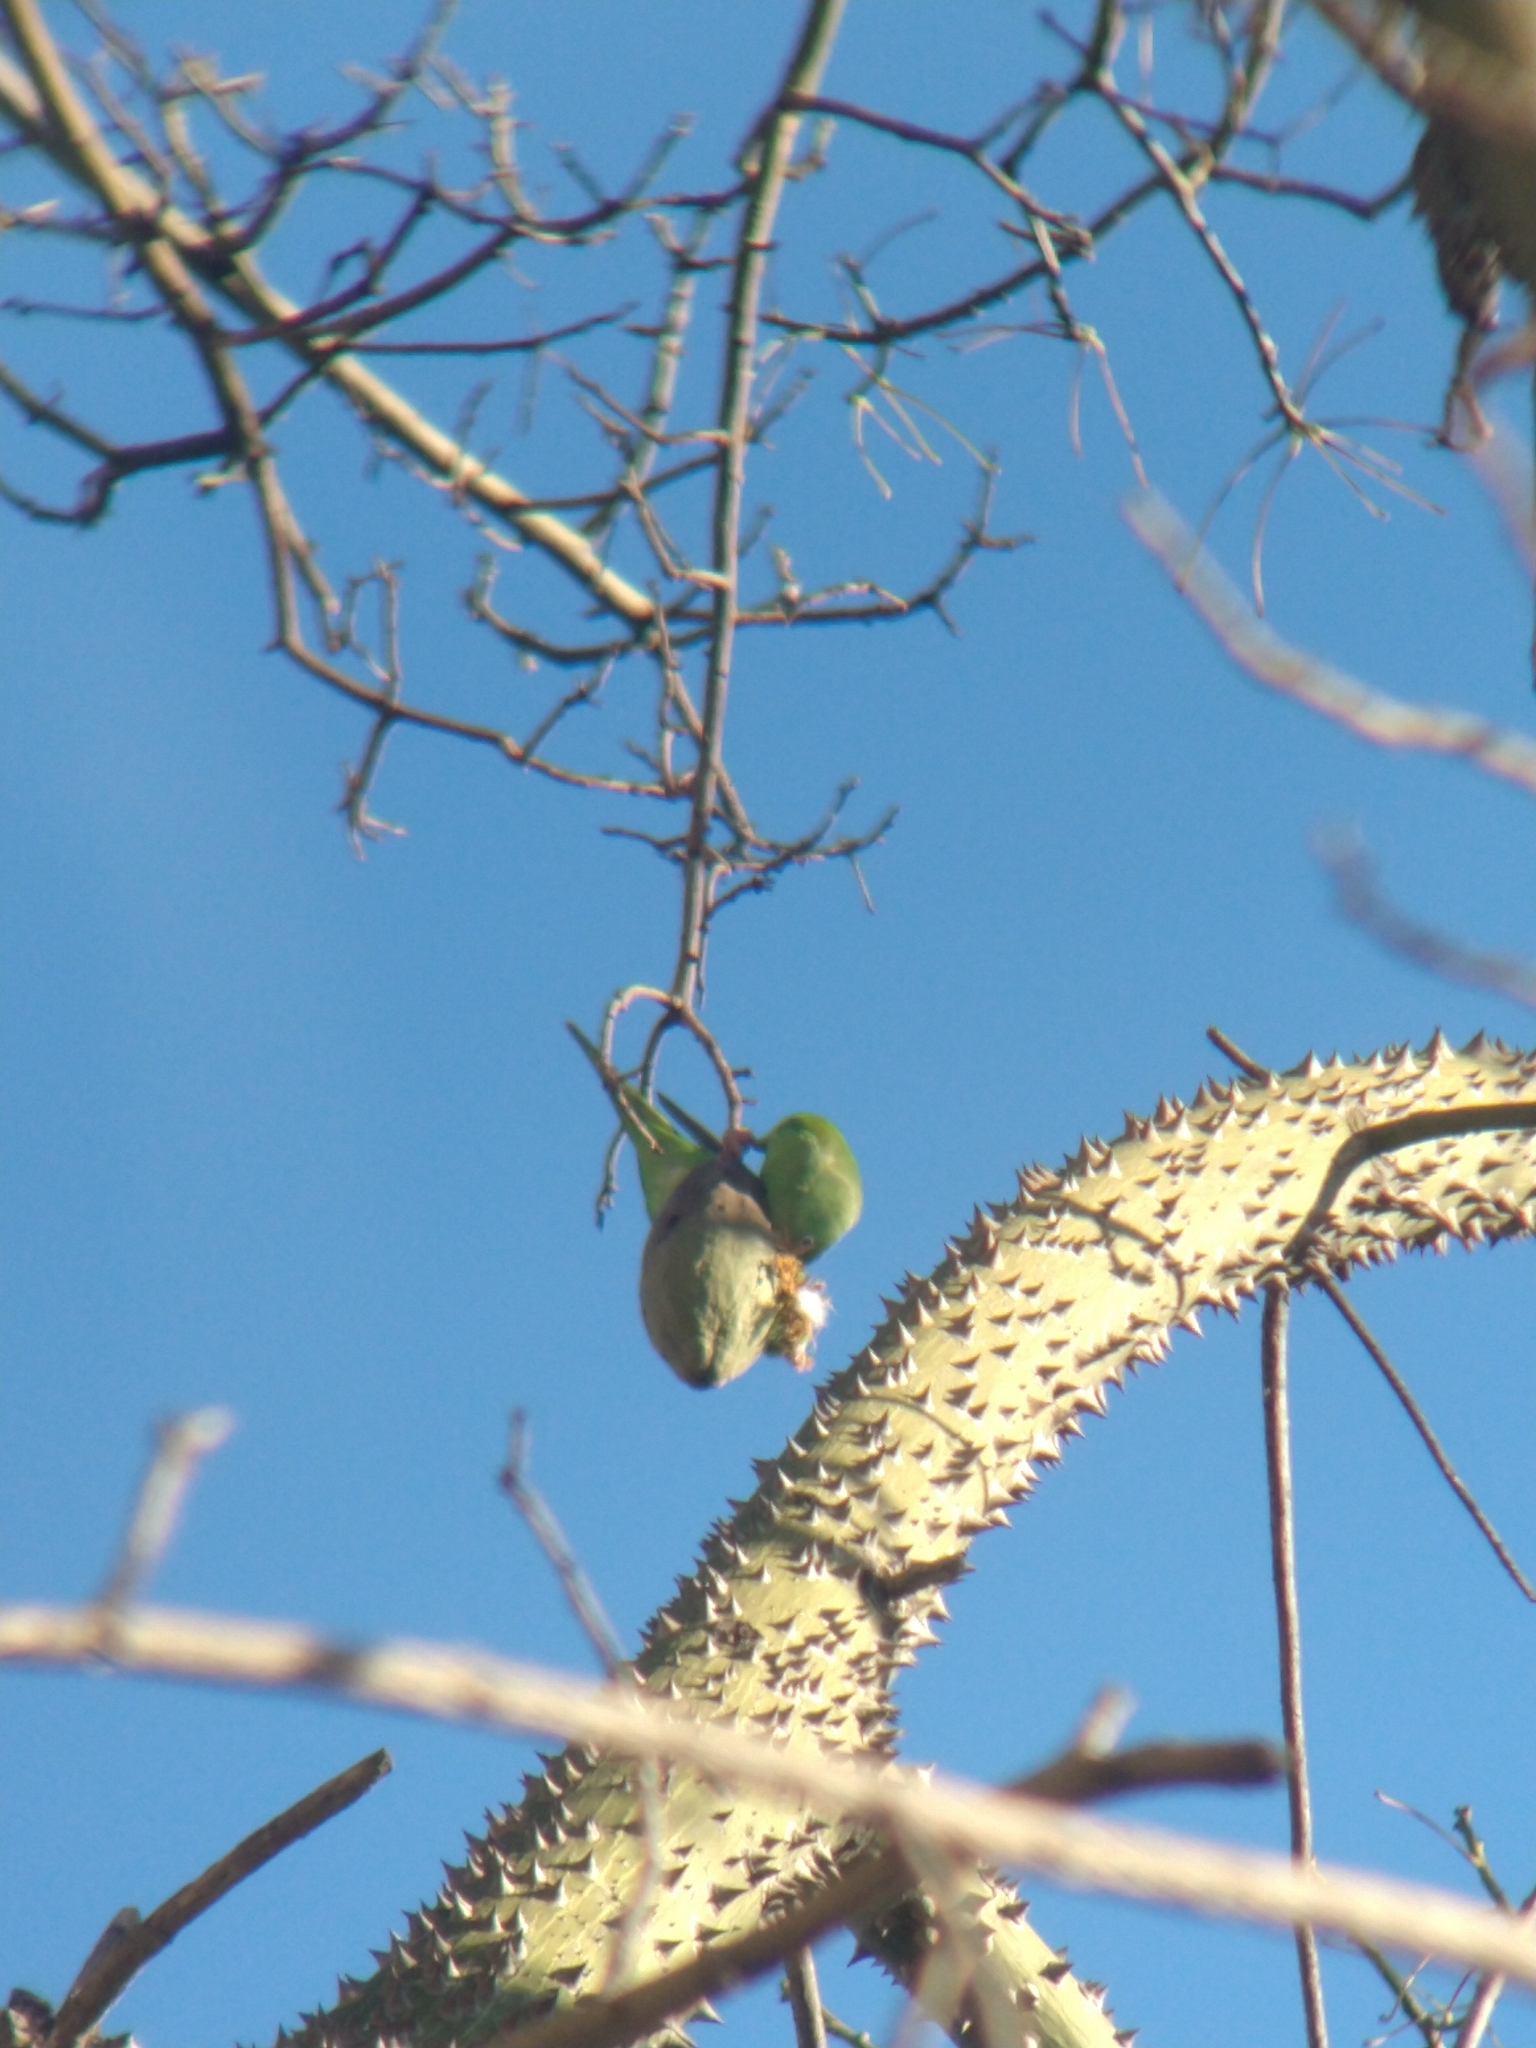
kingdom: Animalia
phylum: Chordata
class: Aves
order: Psittaciformes
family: Psittacidae
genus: Brotogeris
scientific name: Brotogeris chiriri
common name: Yellow-chevroned parakeet
